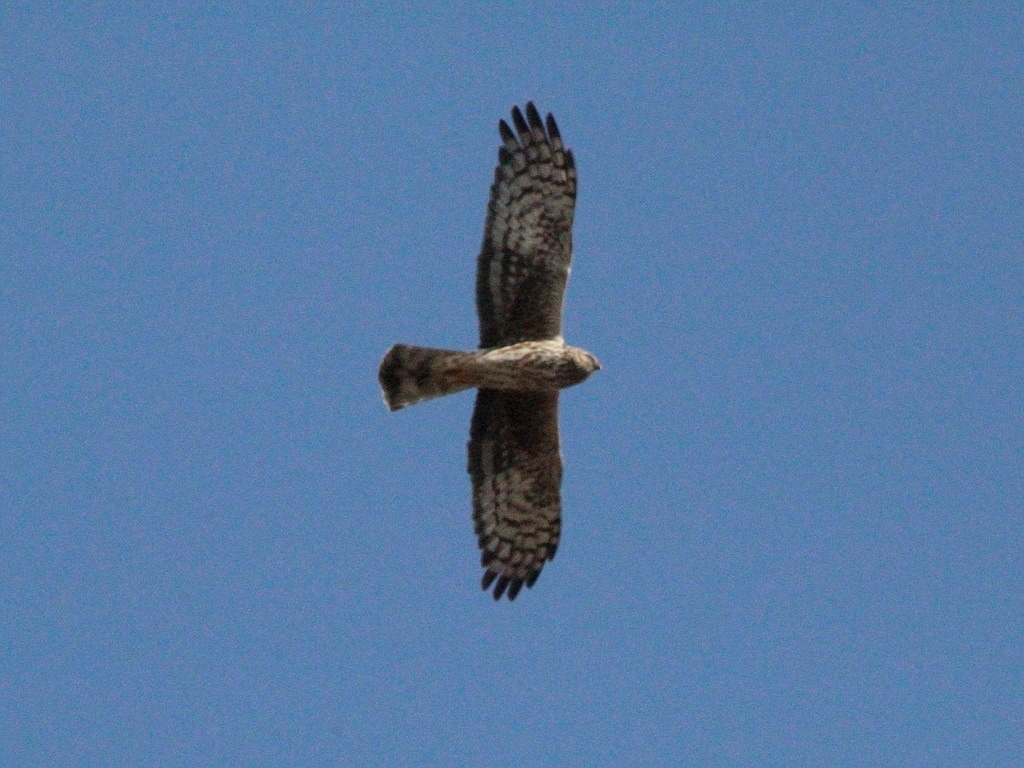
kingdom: Animalia
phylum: Chordata
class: Aves
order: Accipitriformes
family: Accipitridae
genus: Circus
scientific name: Circus cyaneus
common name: Hen harrier
